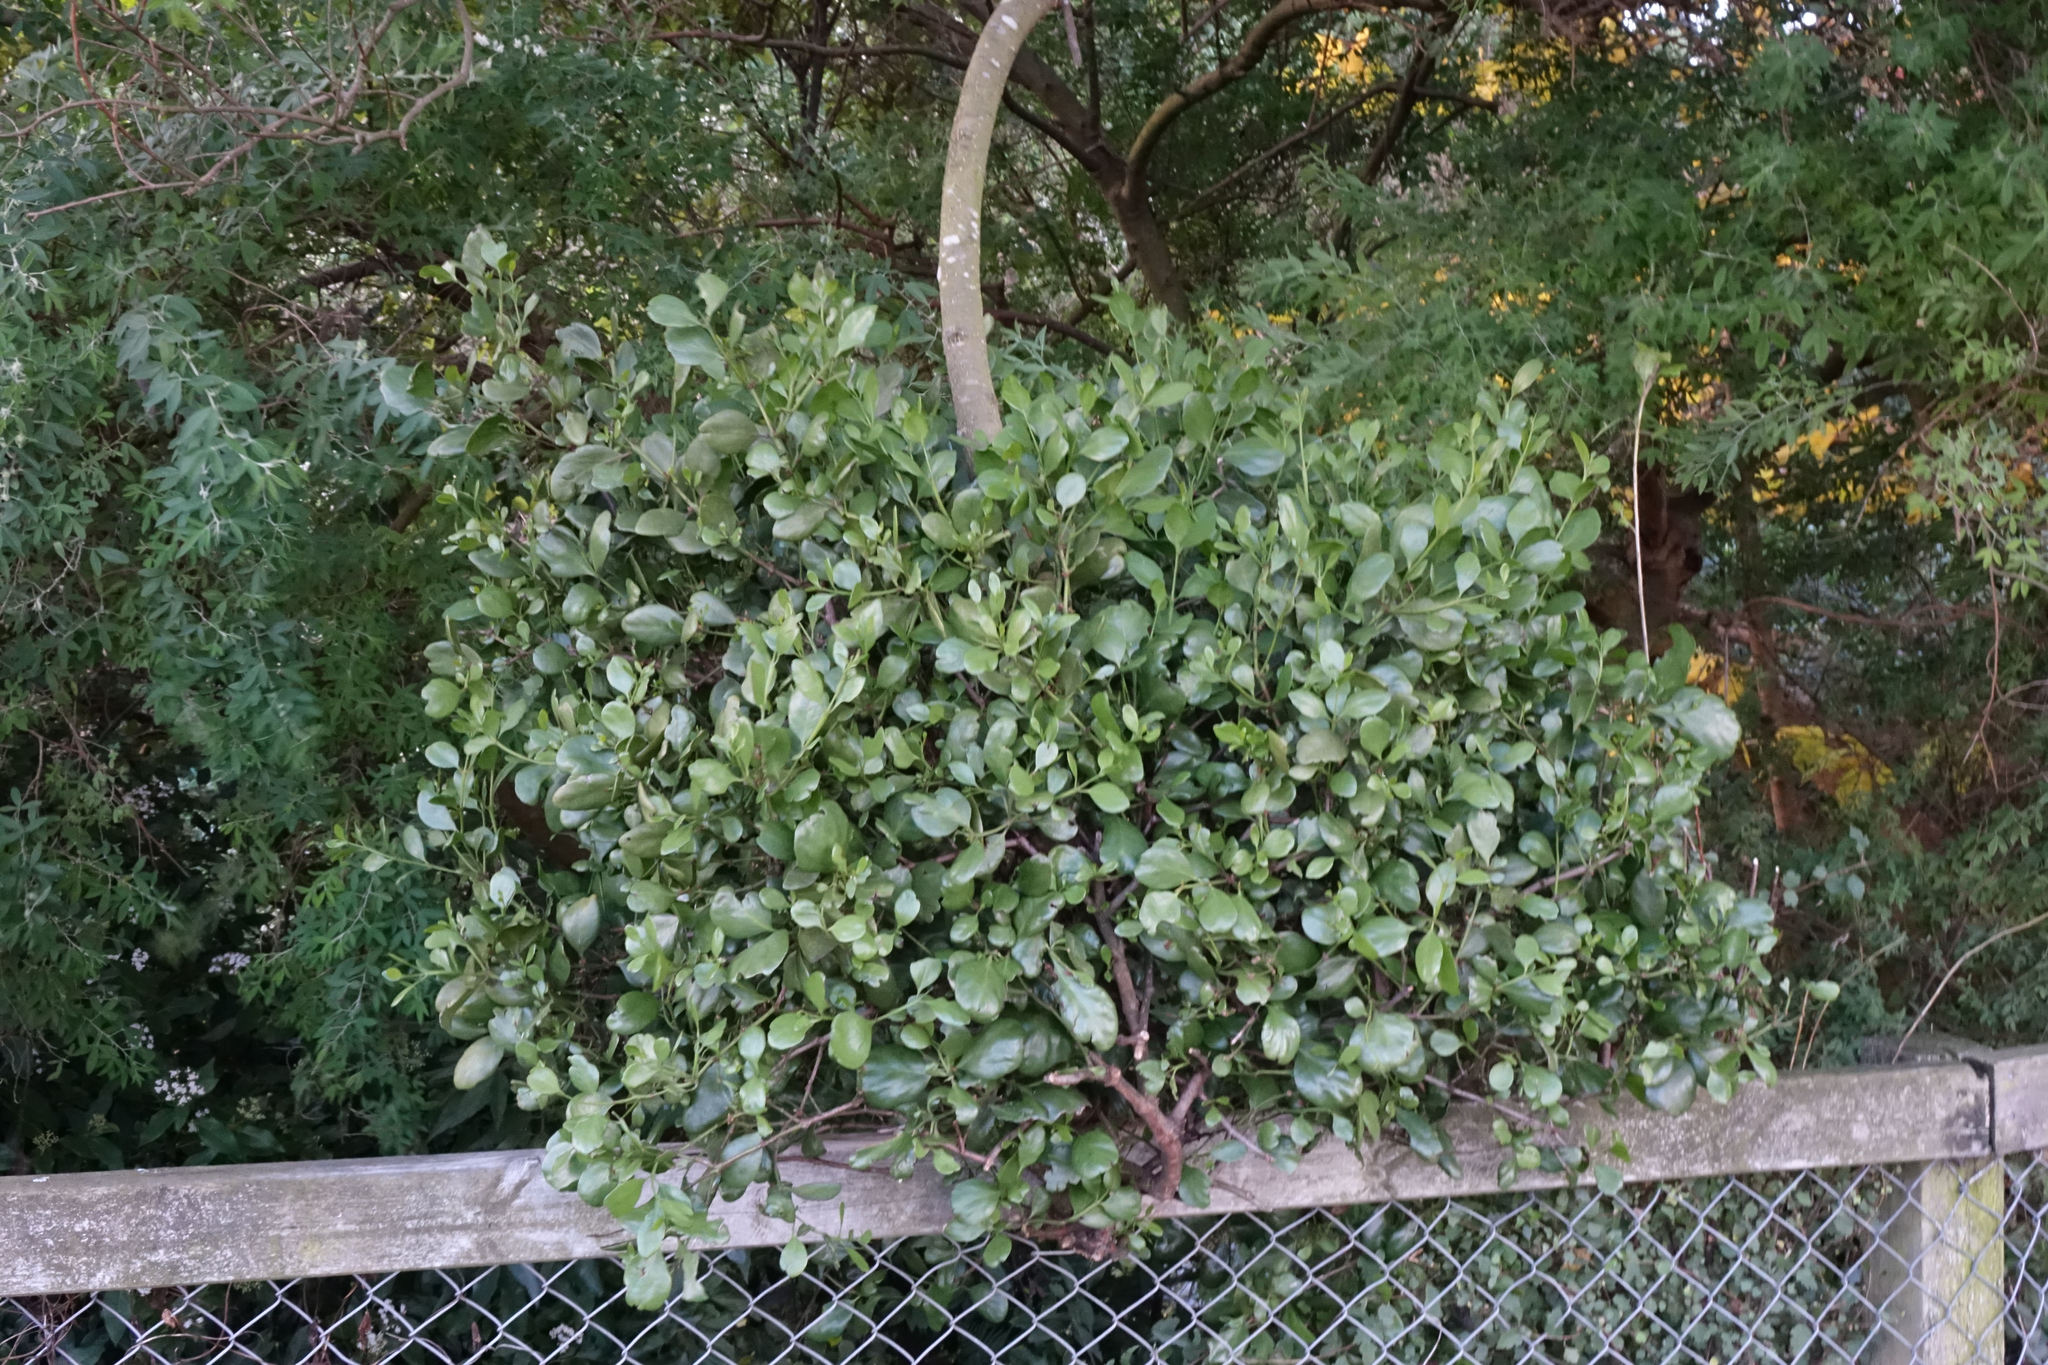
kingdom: Plantae
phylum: Tracheophyta
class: Magnoliopsida
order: Santalales
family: Loranthaceae
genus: Ileostylus
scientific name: Ileostylus micranthus
